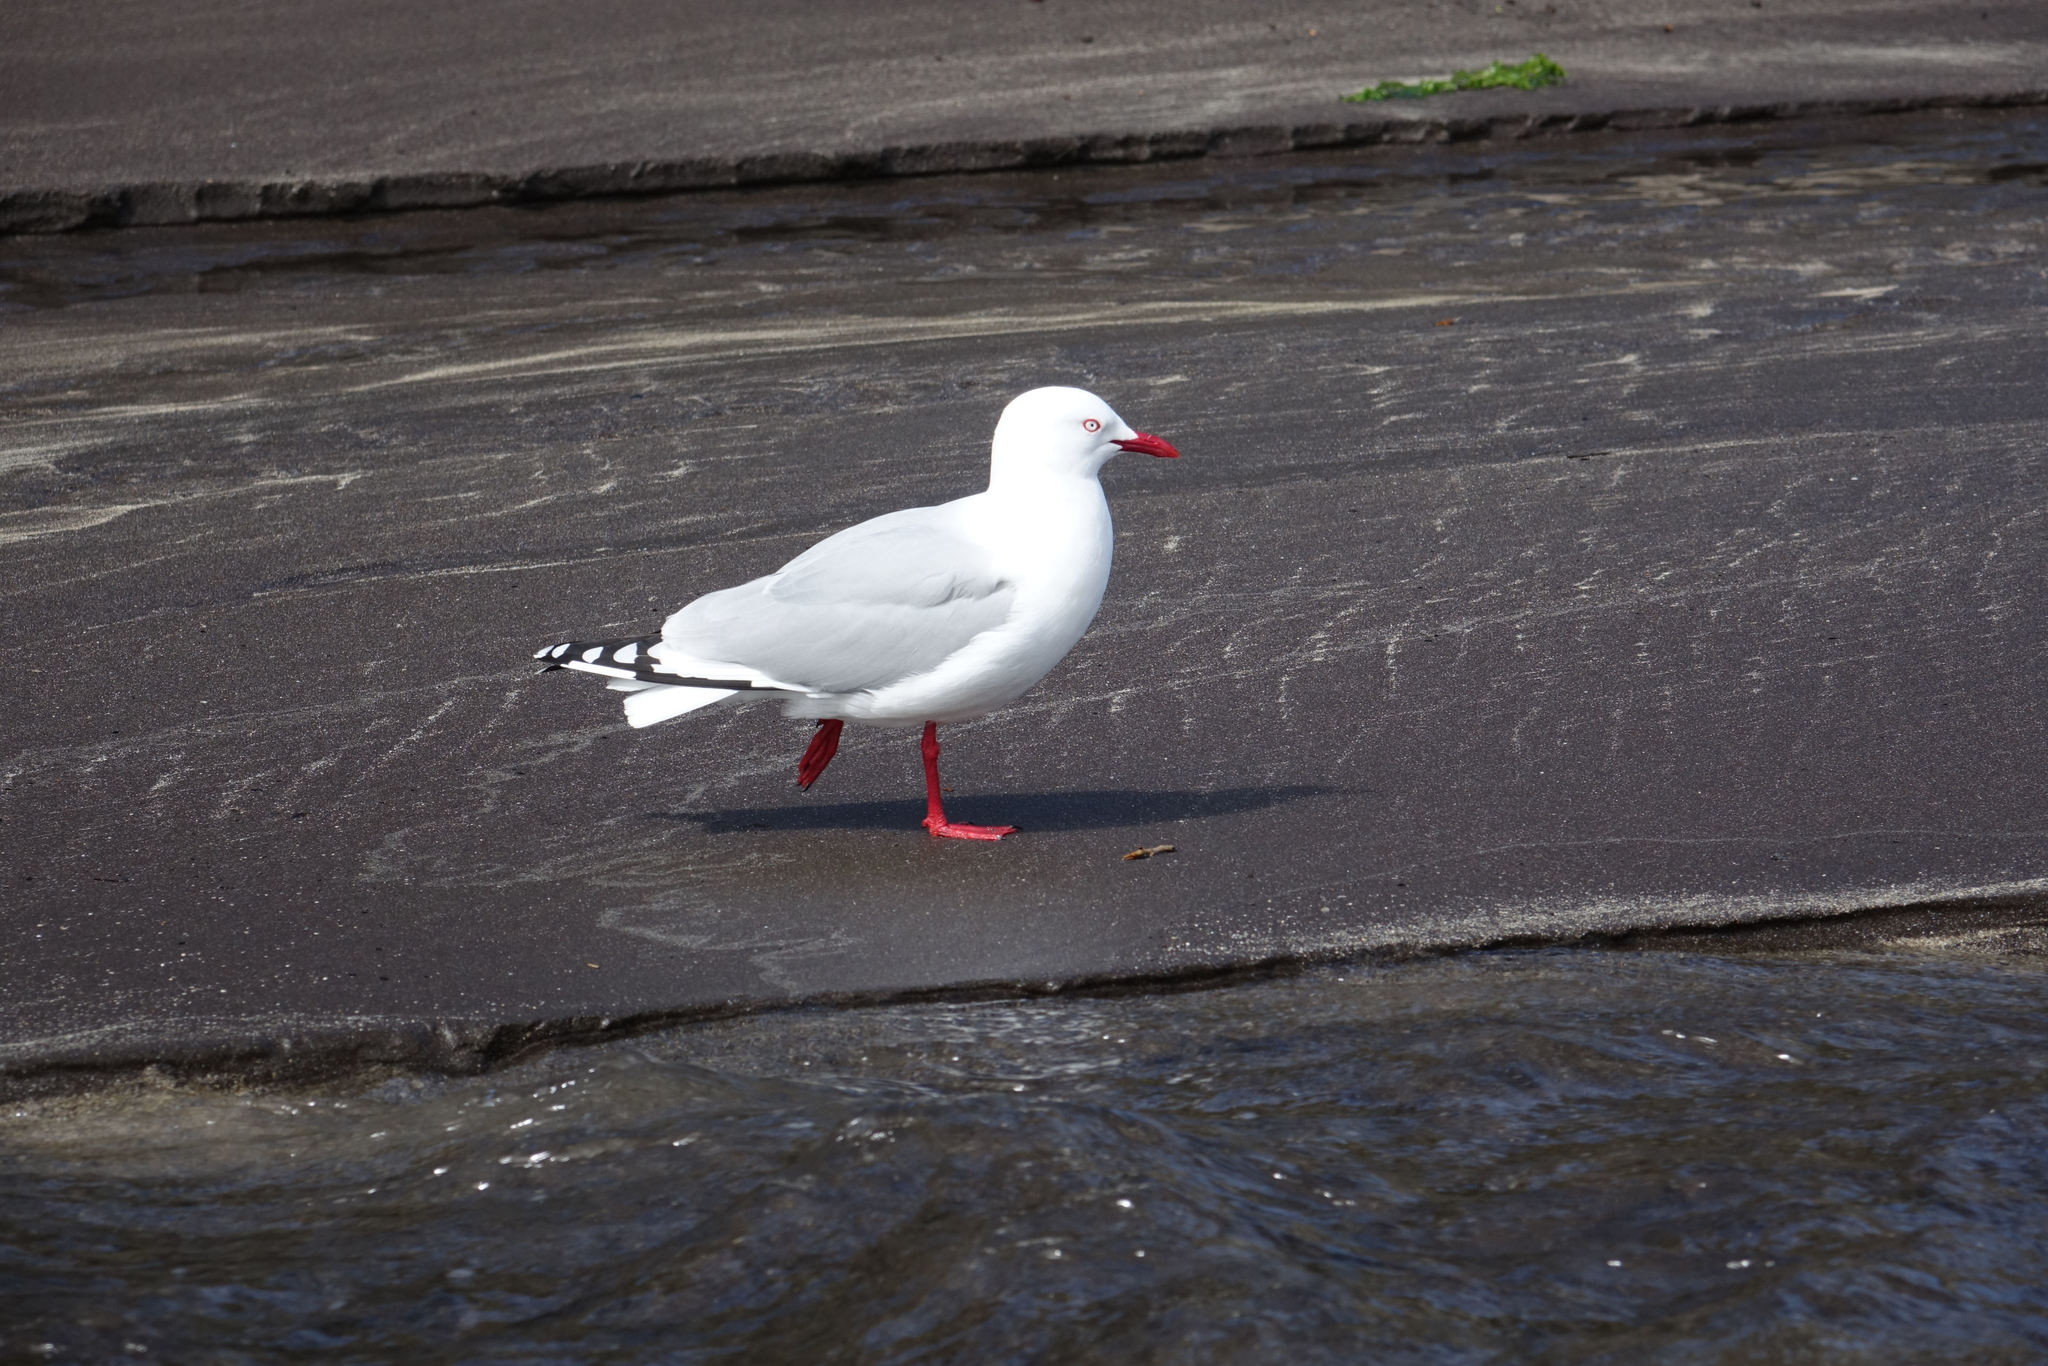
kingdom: Animalia
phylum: Chordata
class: Aves
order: Charadriiformes
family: Laridae
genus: Chroicocephalus
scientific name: Chroicocephalus novaehollandiae
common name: Silver gull
